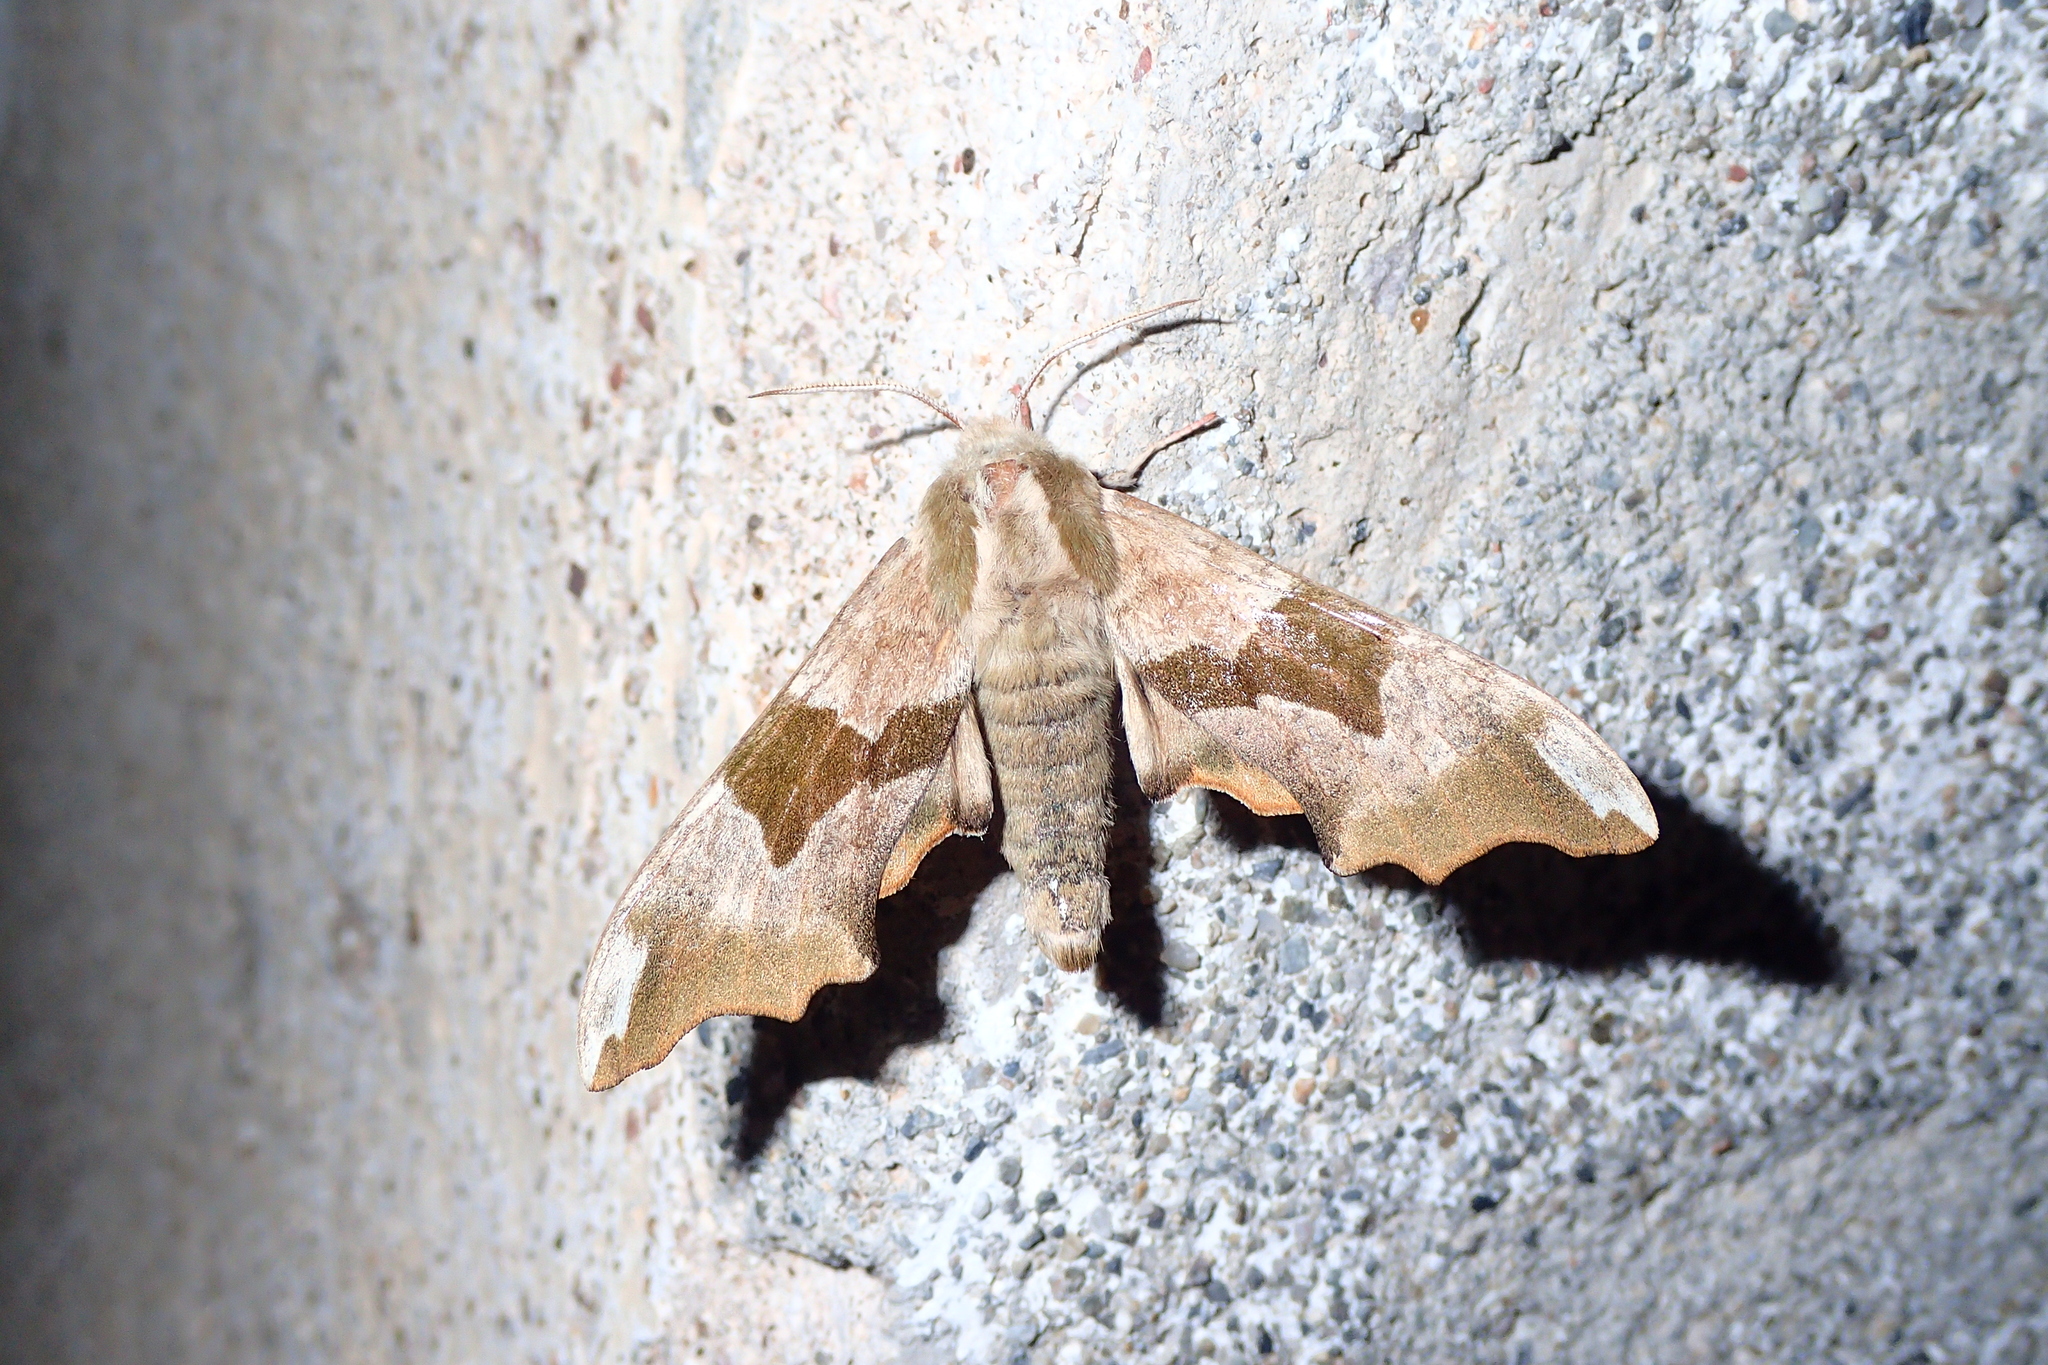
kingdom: Animalia
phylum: Arthropoda
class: Insecta
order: Lepidoptera
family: Sphingidae
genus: Mimas
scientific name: Mimas tiliae
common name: Lime hawk-moth
